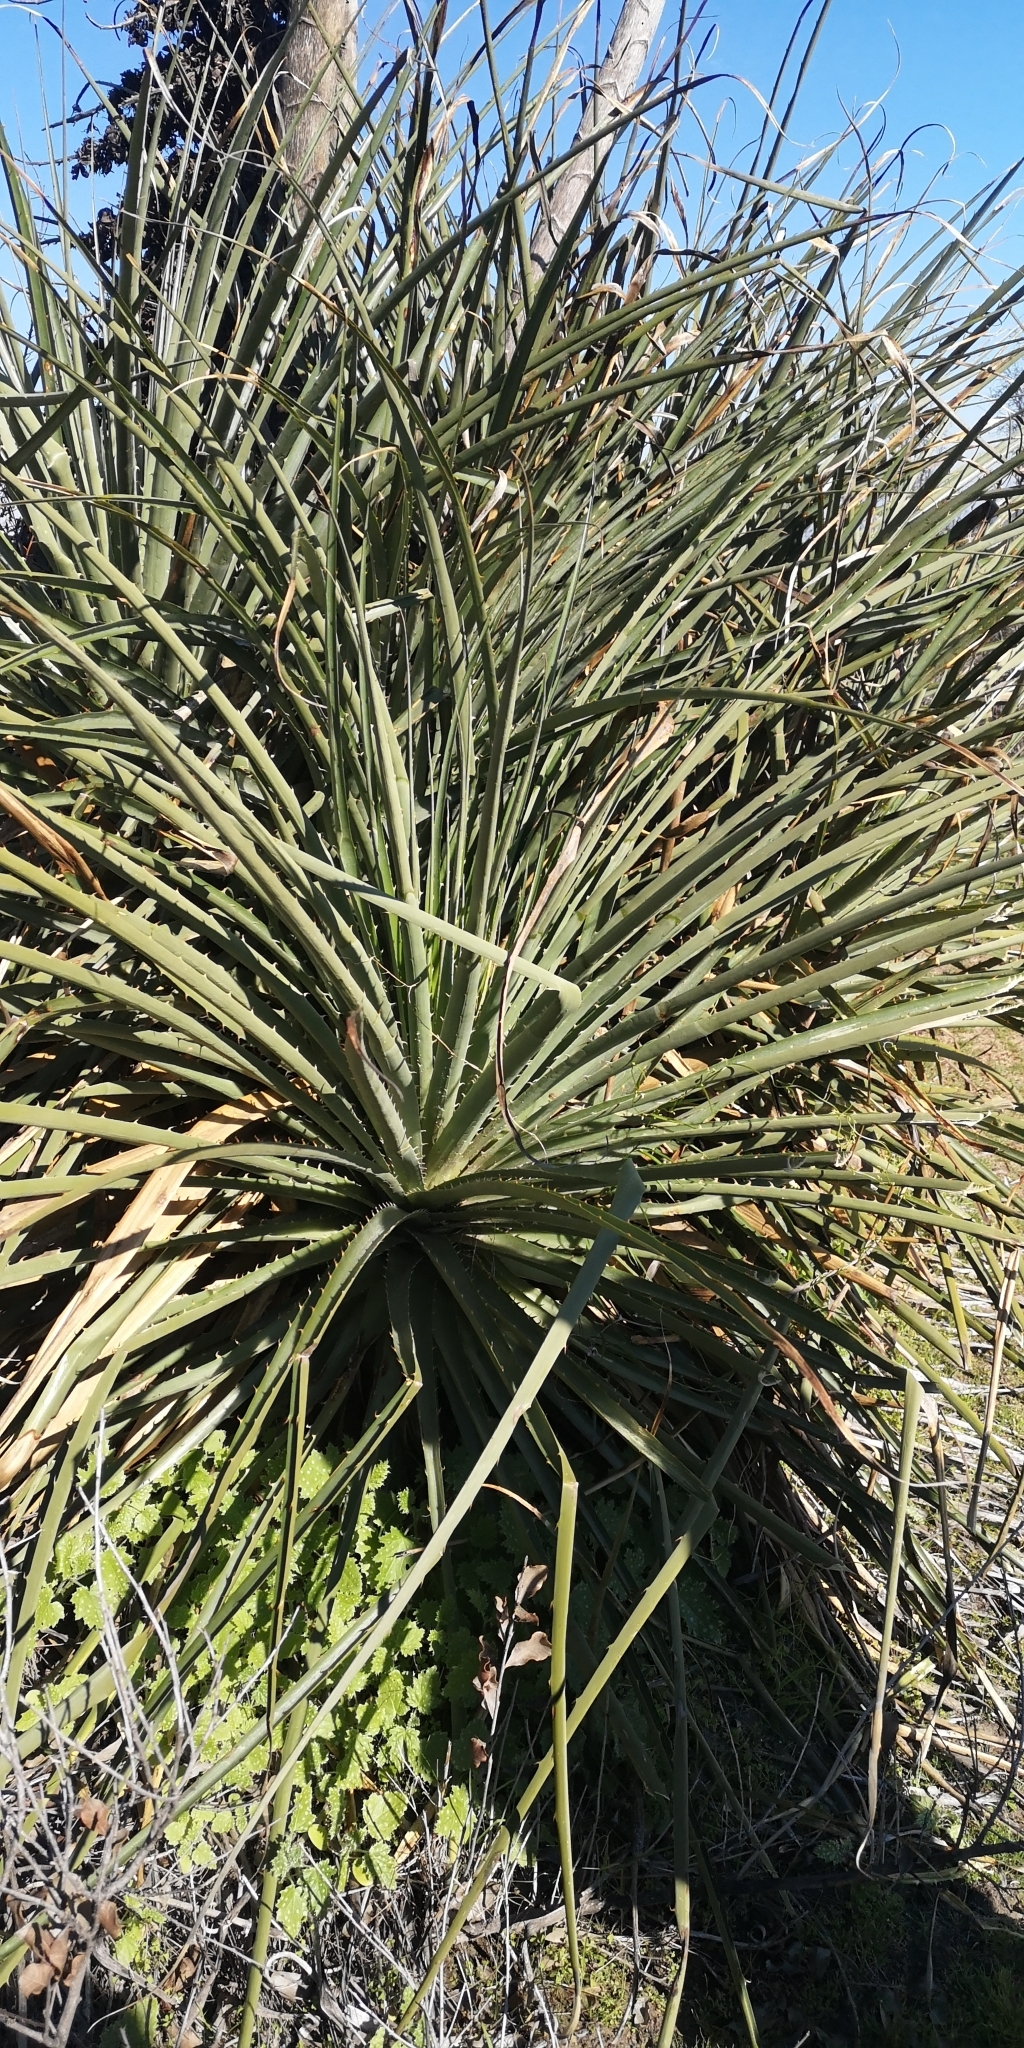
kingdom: Plantae
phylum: Tracheophyta
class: Liliopsida
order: Poales
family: Bromeliaceae
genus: Puya
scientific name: Puya chilensis
